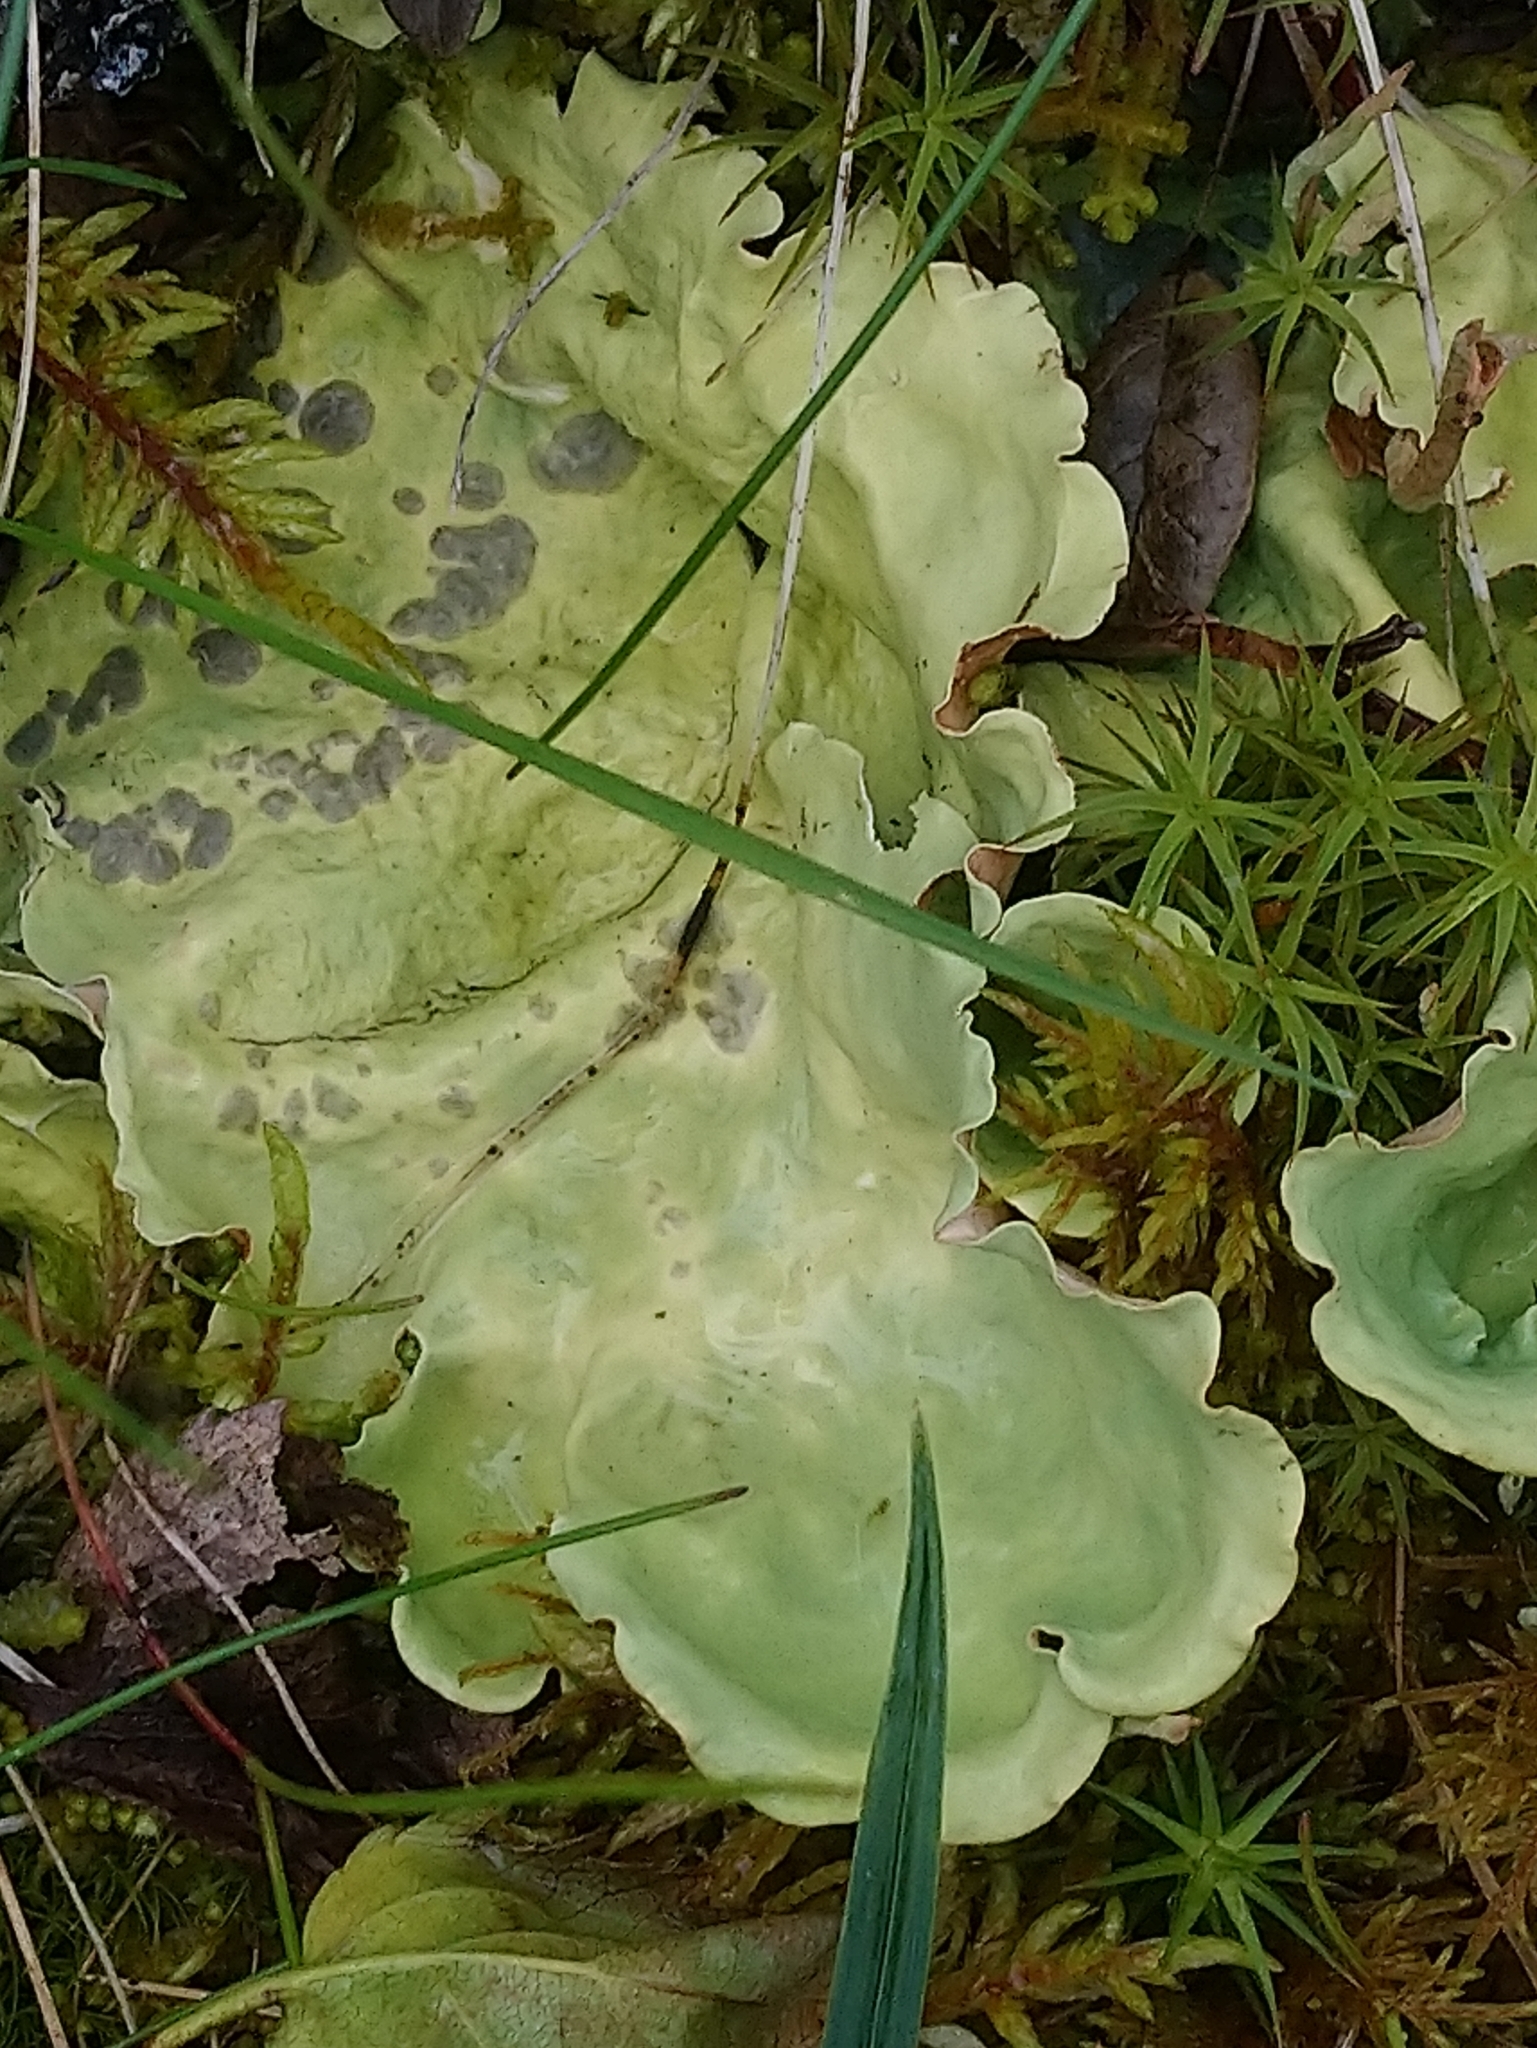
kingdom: Fungi
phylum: Ascomycota
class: Lecanoromycetes
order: Peltigerales
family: Nephromataceae
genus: Nephroma
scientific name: Nephroma arcticum
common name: Arctic kidney-lichen
